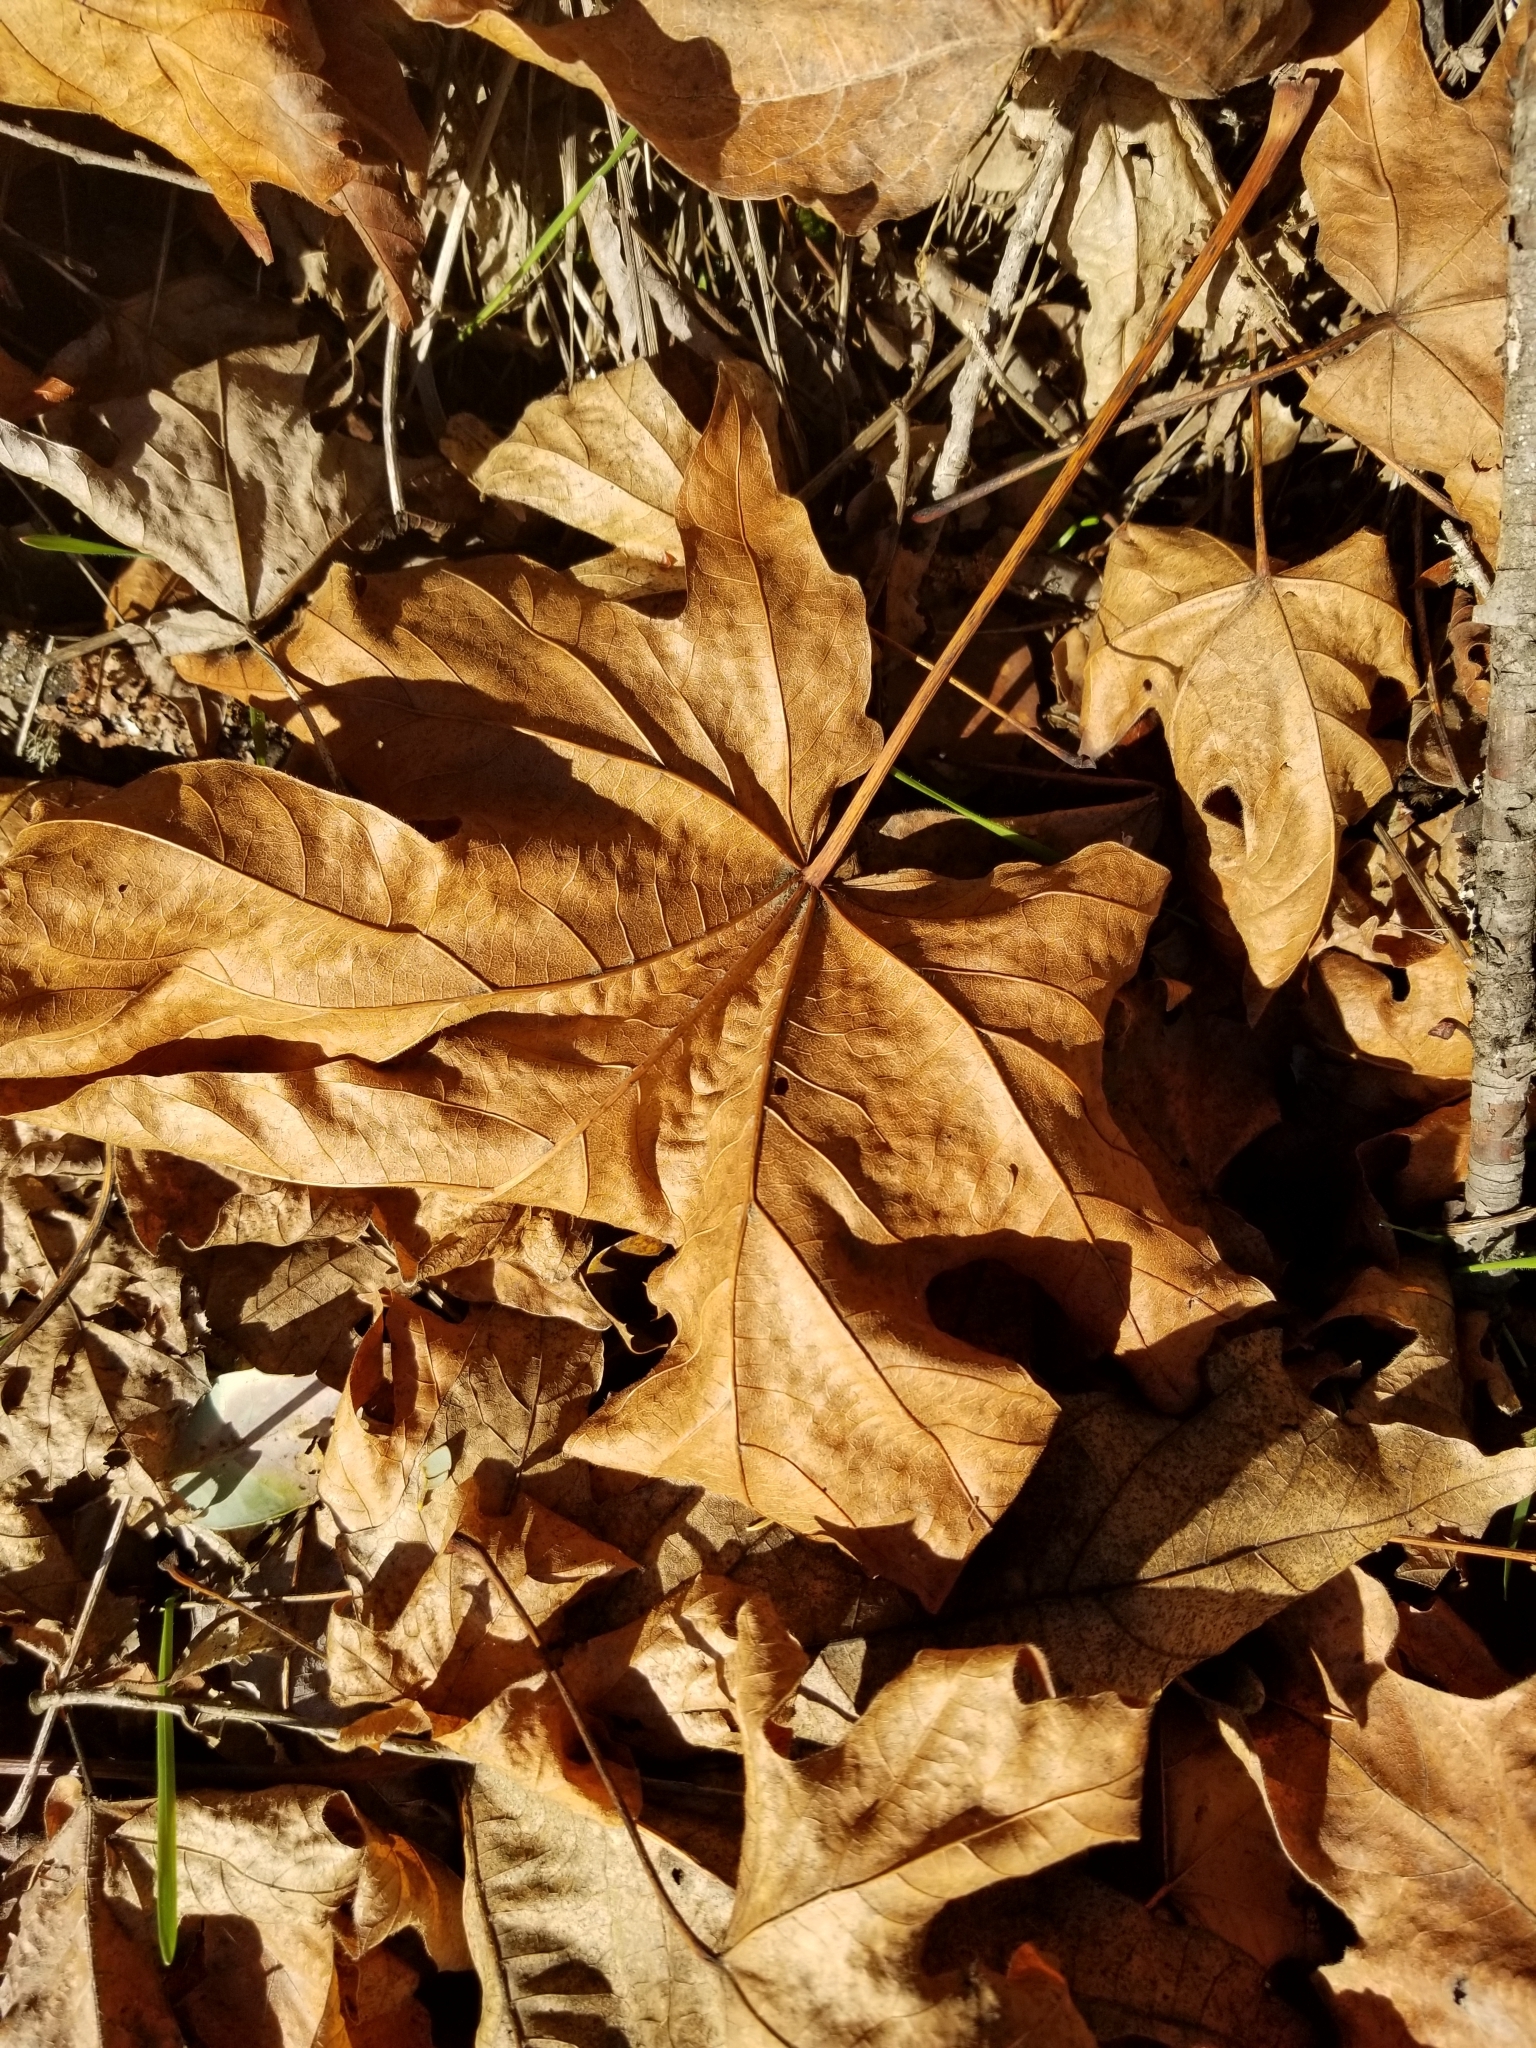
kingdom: Plantae
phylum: Tracheophyta
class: Magnoliopsida
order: Sapindales
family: Sapindaceae
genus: Acer
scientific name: Acer macrophyllum
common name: Oregon maple
